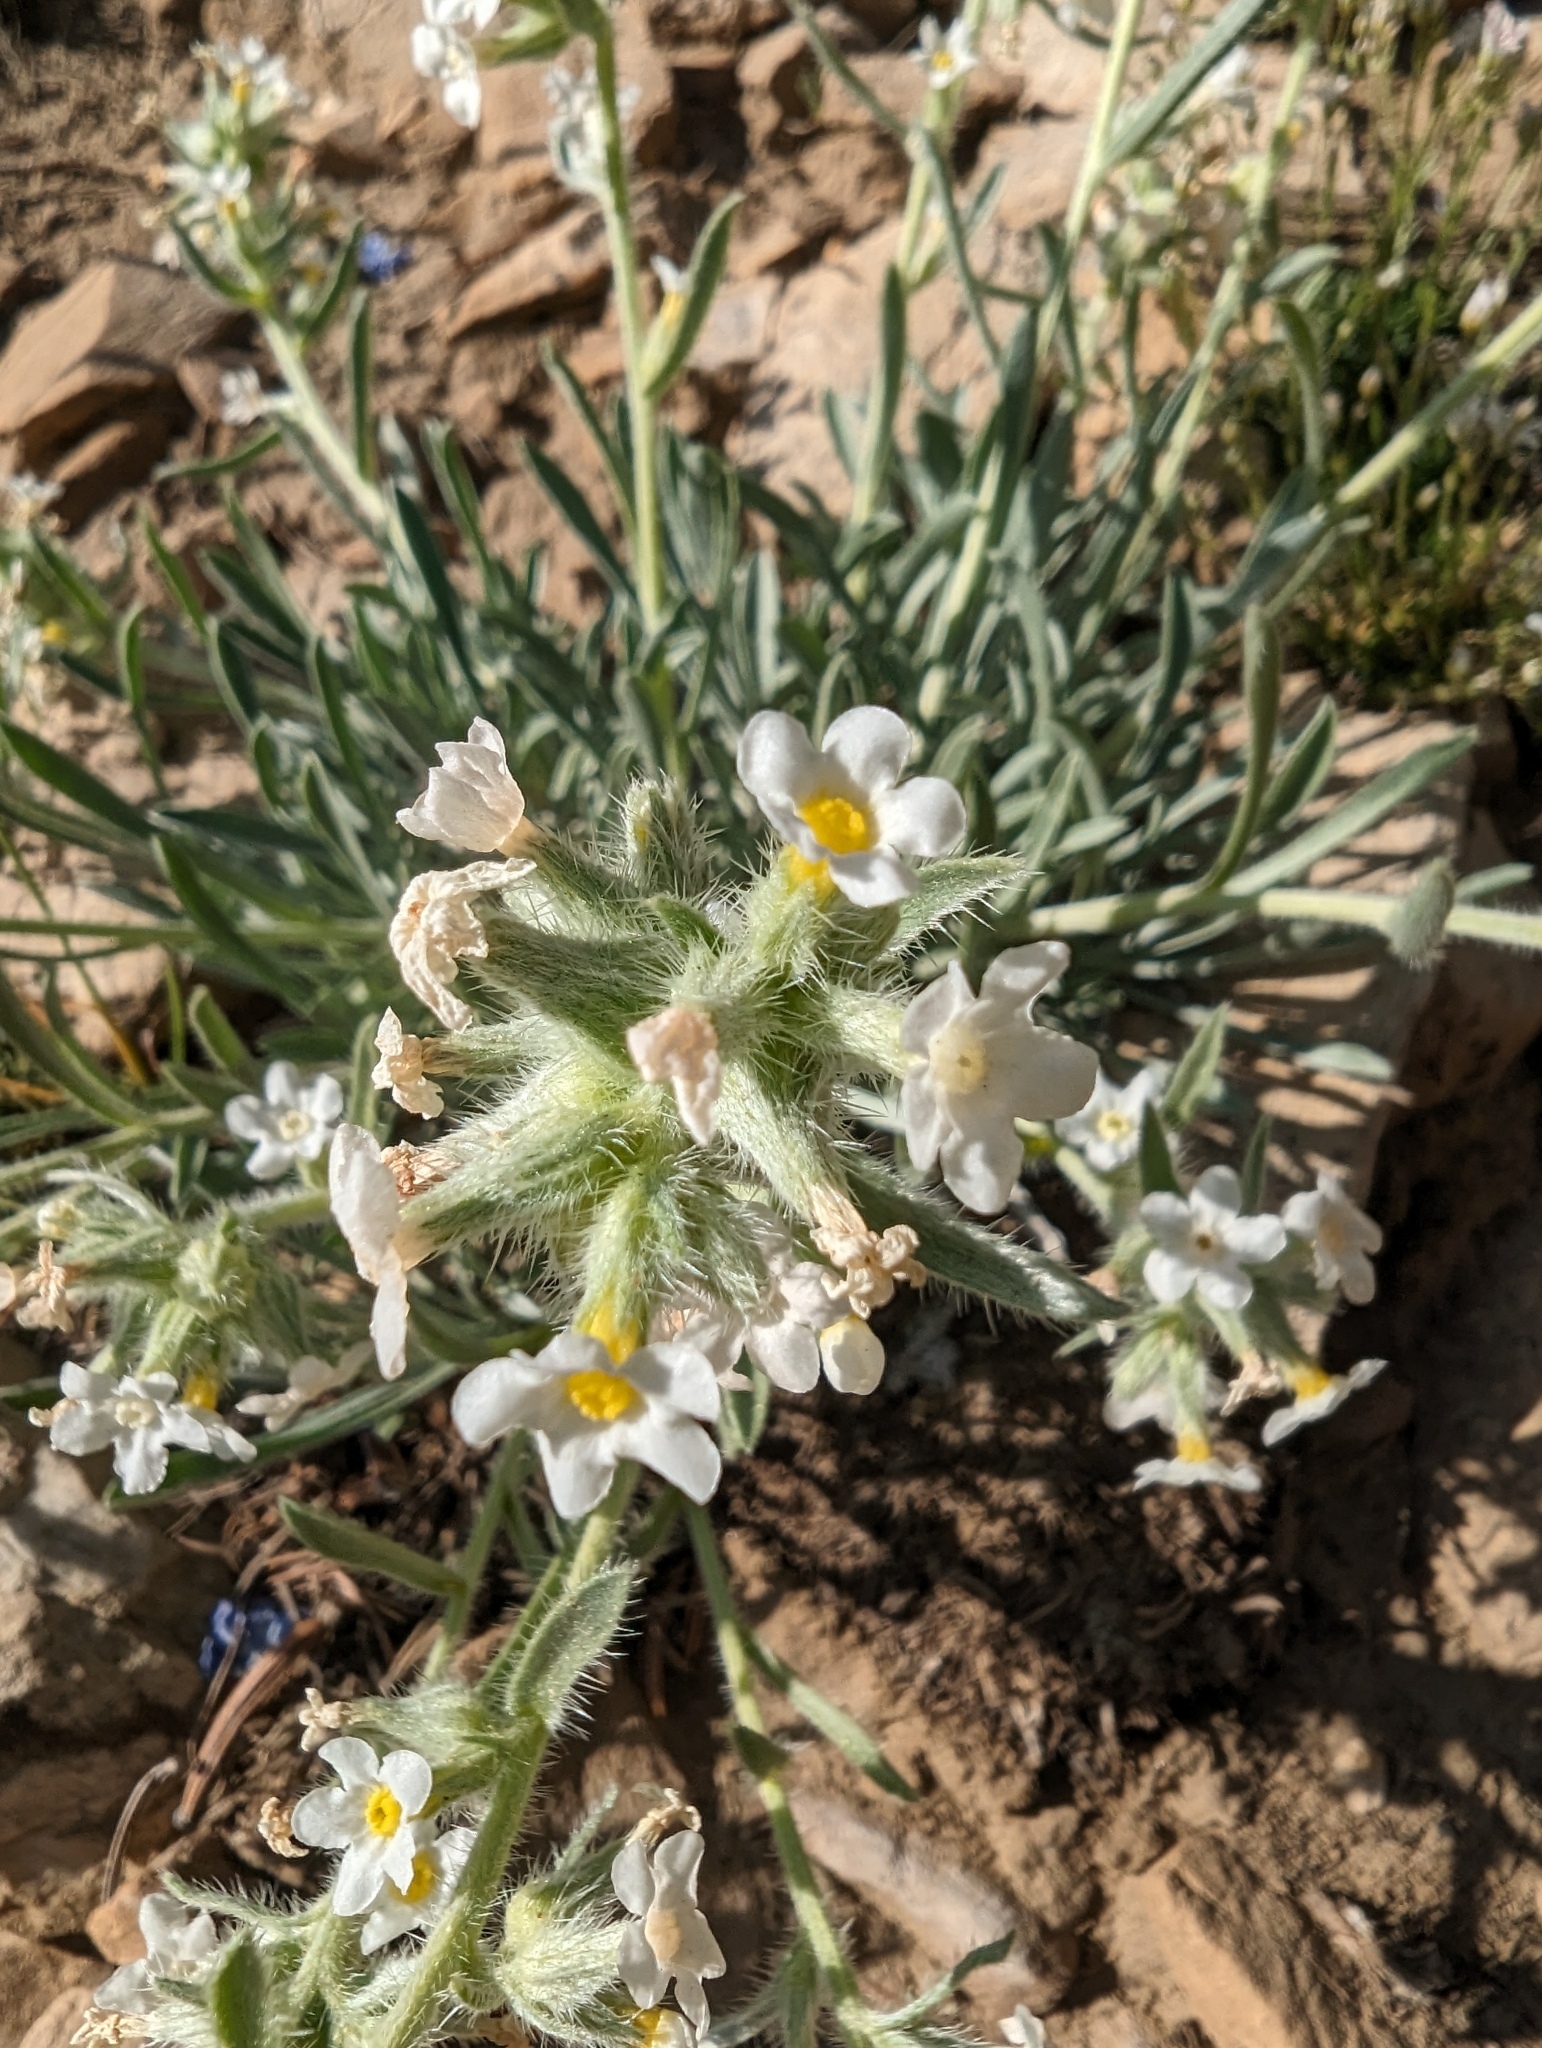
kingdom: Plantae
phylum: Tracheophyta
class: Magnoliopsida
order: Boraginales
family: Boraginaceae
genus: Oreocarya
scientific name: Oreocarya flavoculata
